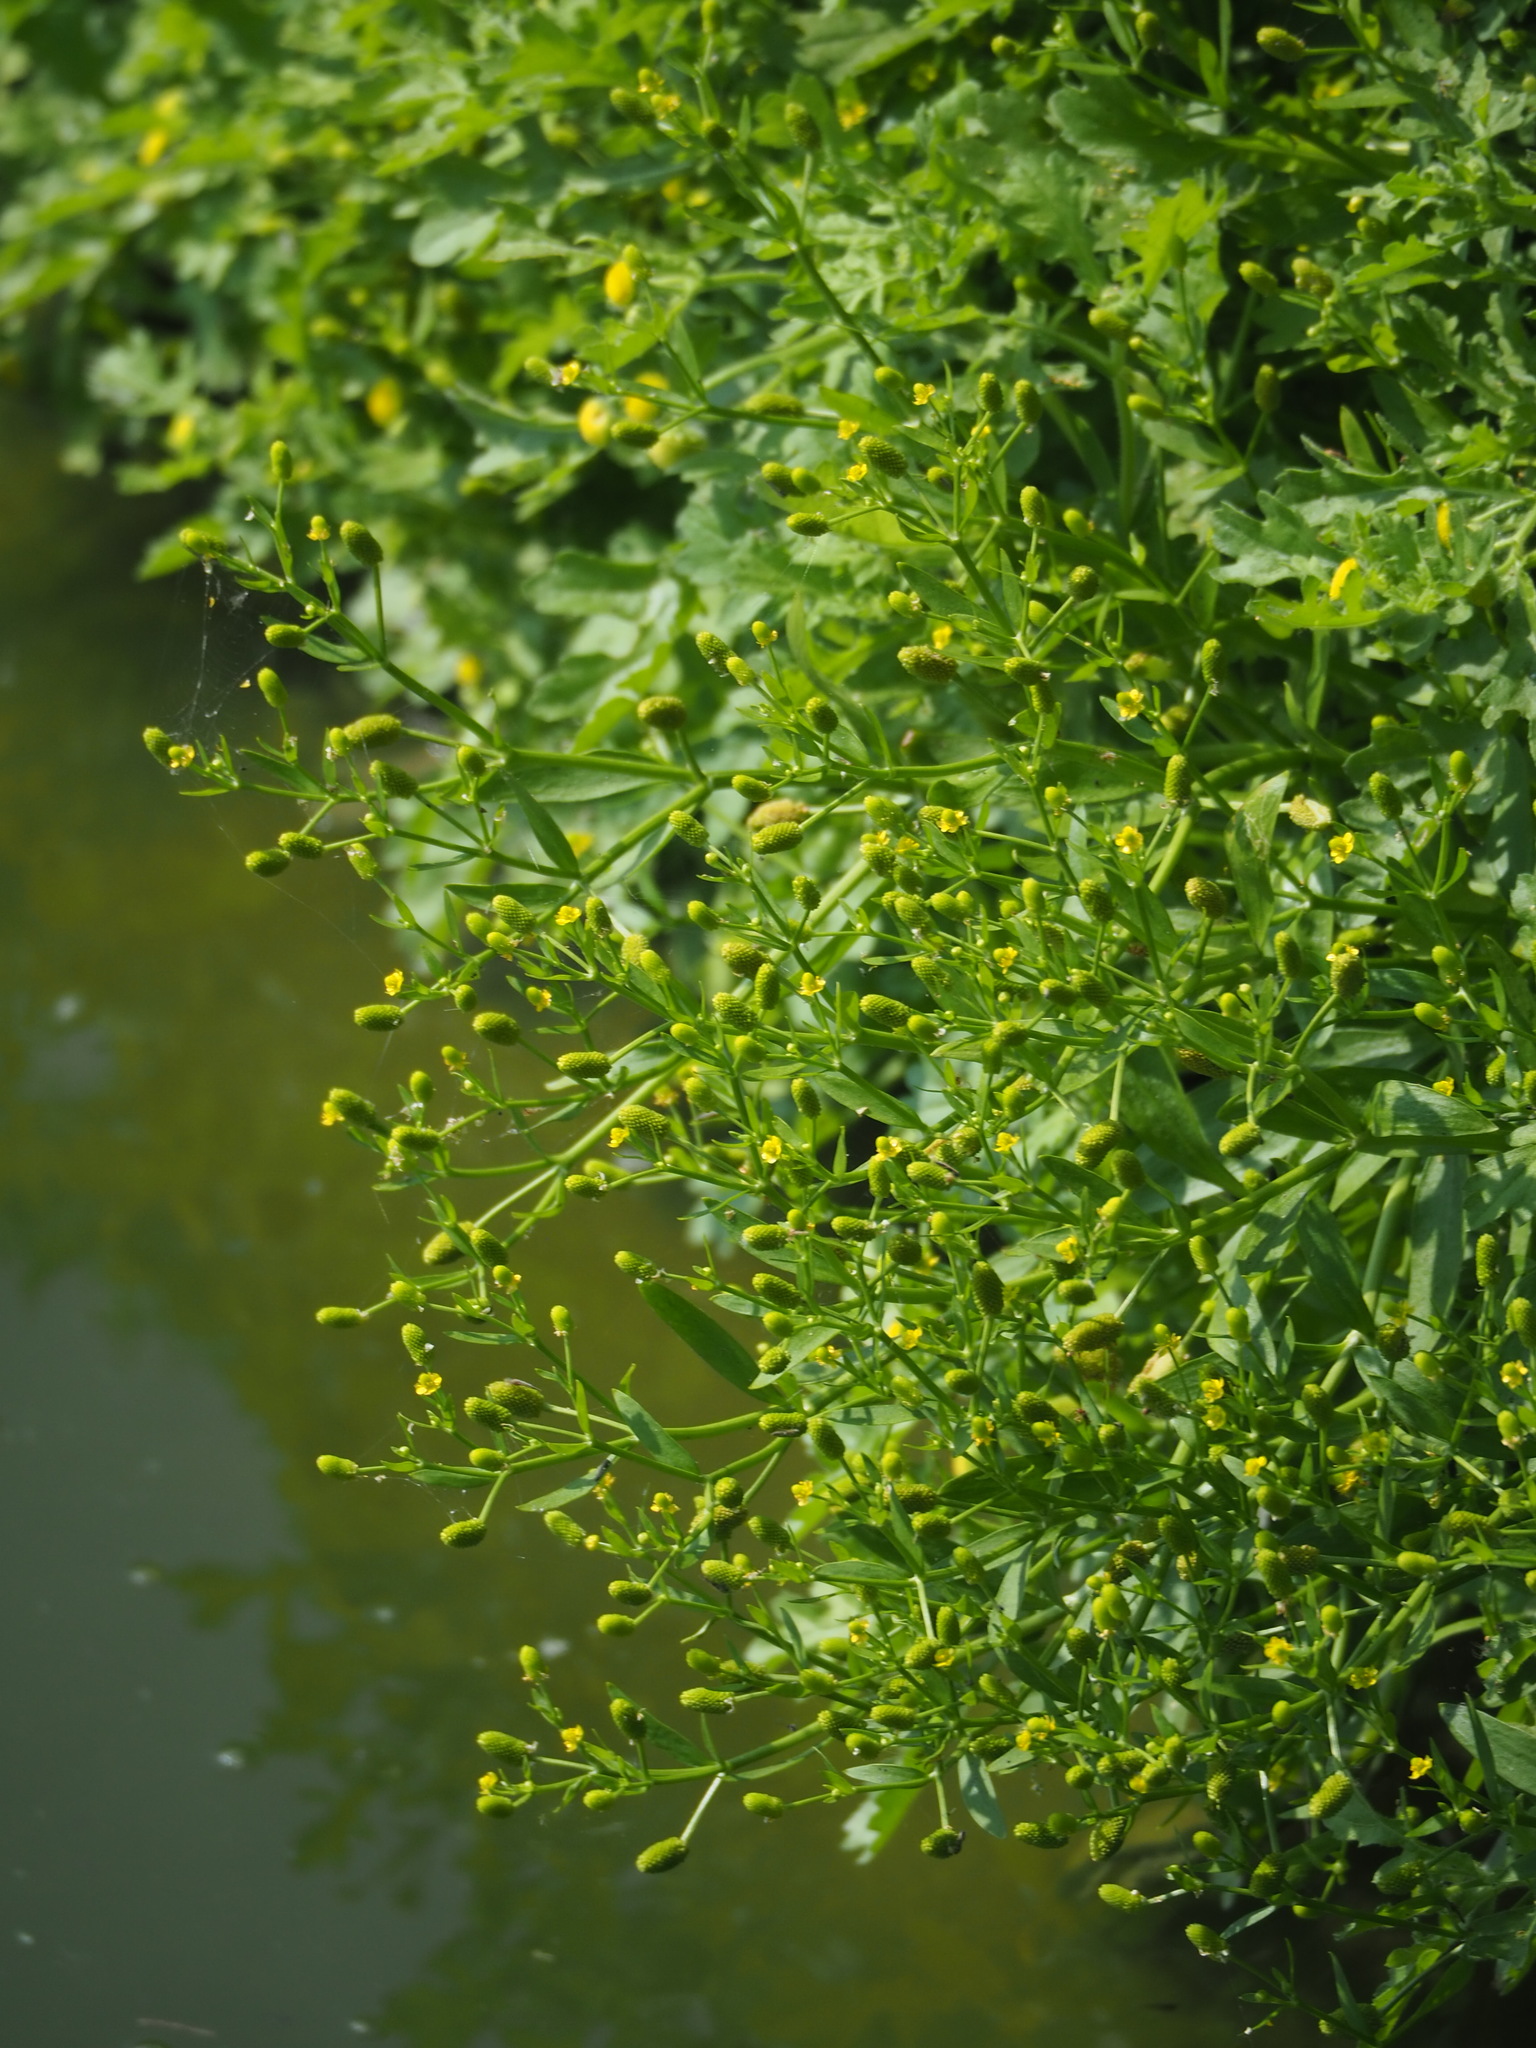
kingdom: Plantae
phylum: Tracheophyta
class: Magnoliopsida
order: Ranunculales
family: Ranunculaceae
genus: Ranunculus
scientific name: Ranunculus sceleratus
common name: Celery-leaved buttercup
